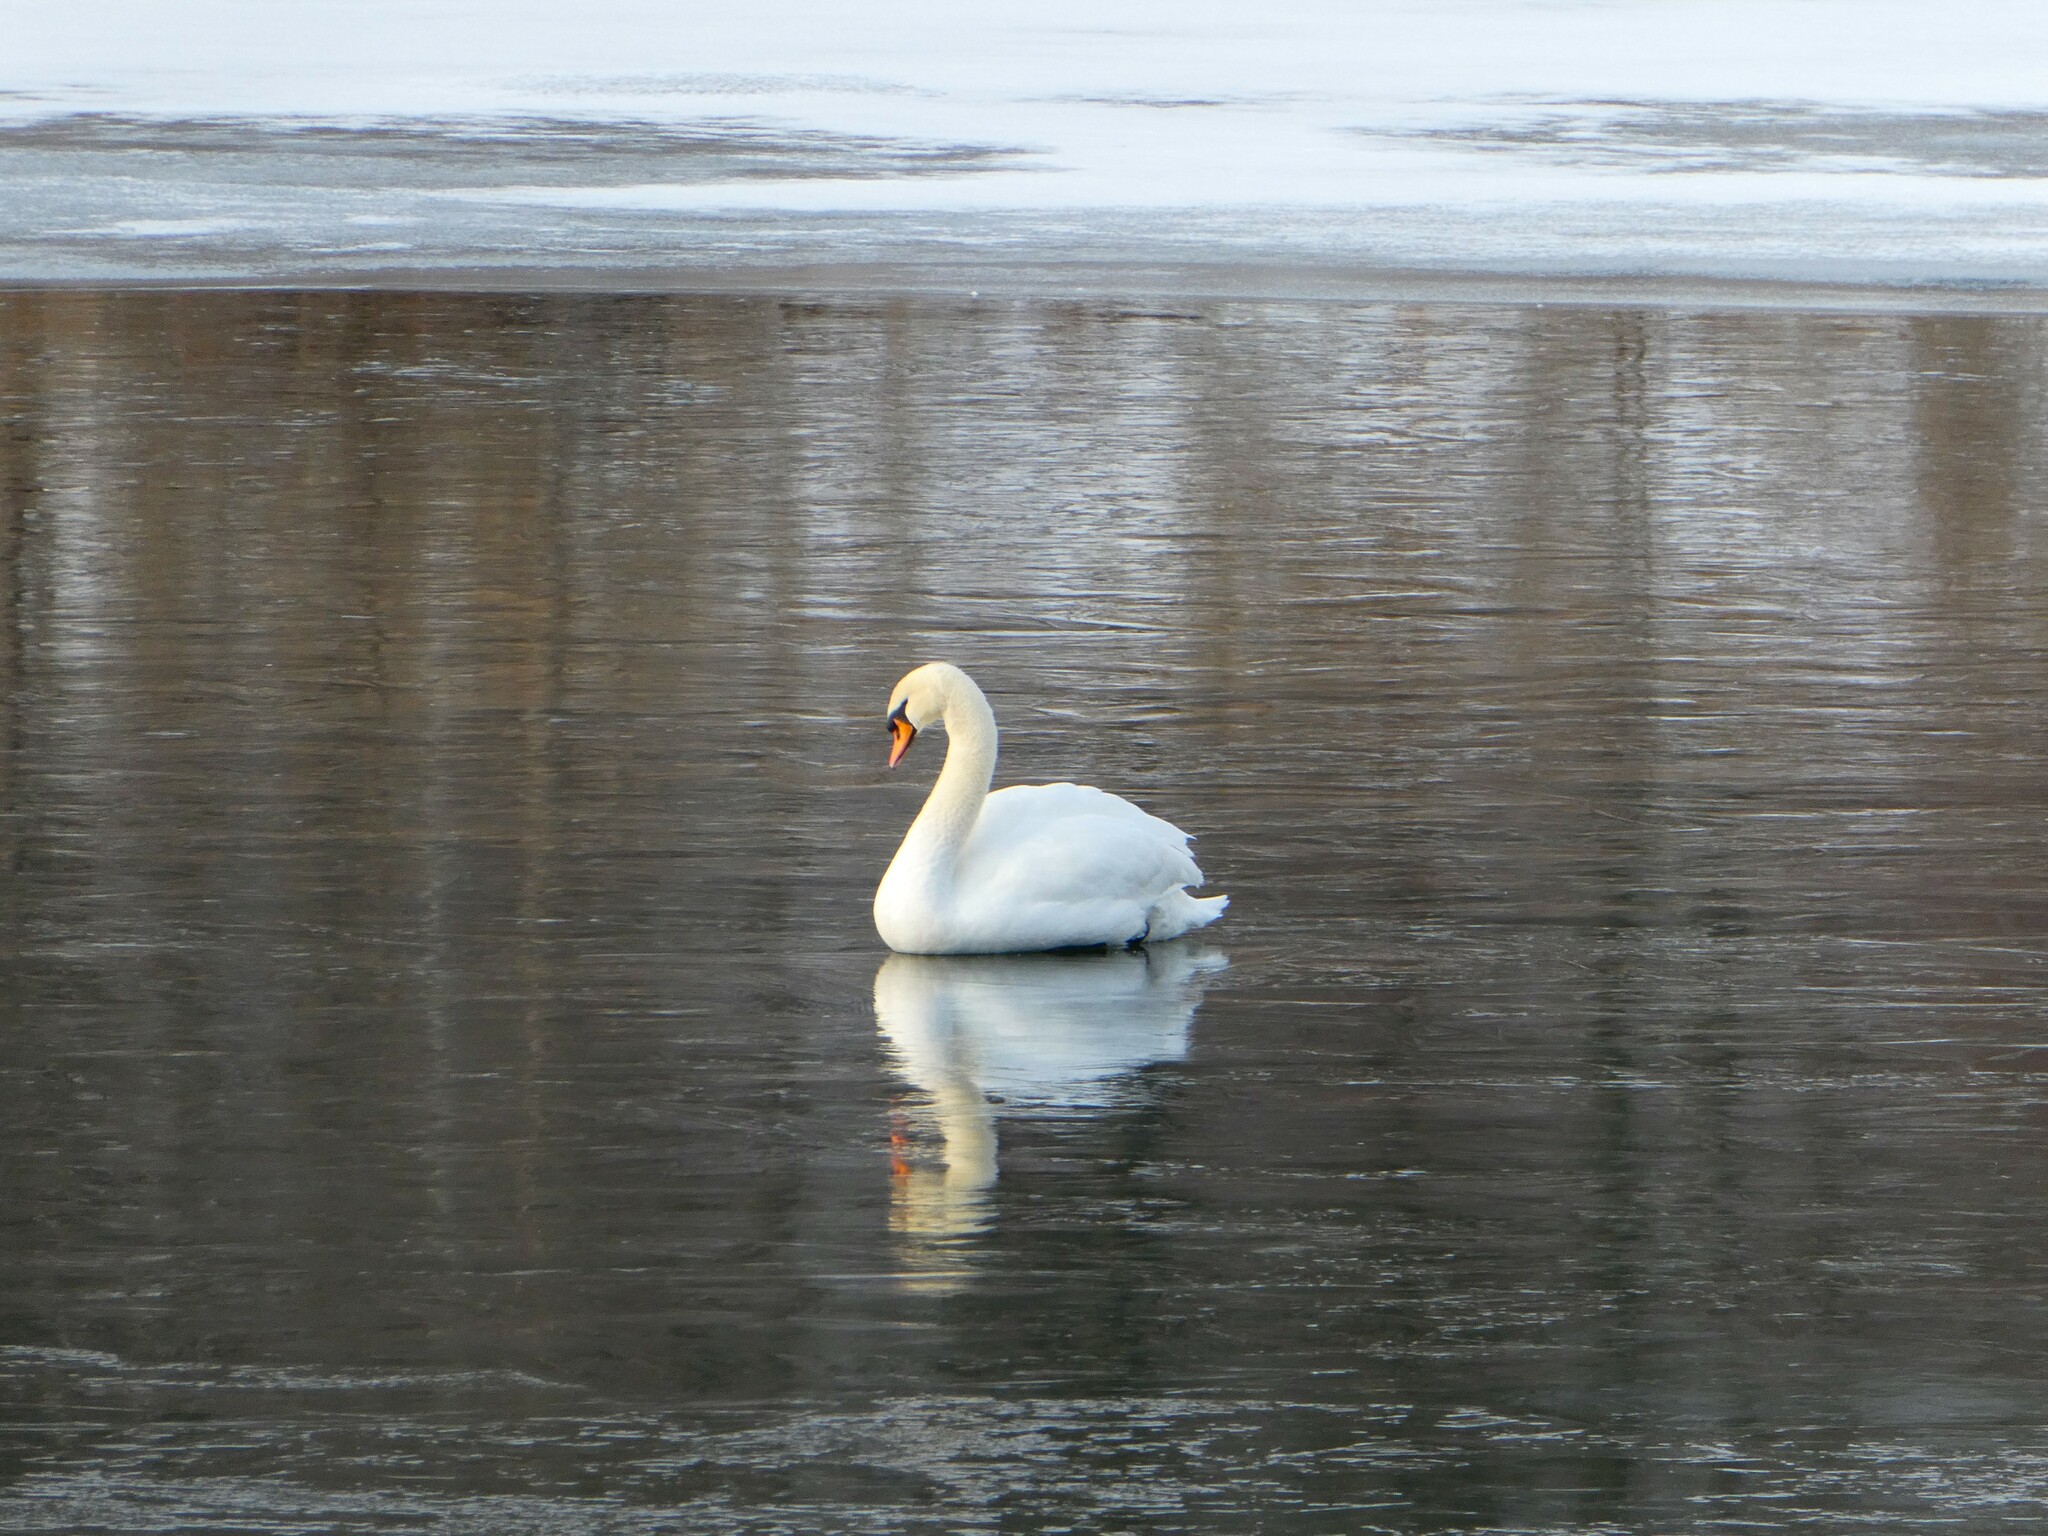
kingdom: Animalia
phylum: Chordata
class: Aves
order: Anseriformes
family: Anatidae
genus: Cygnus
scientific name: Cygnus olor
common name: Mute swan
